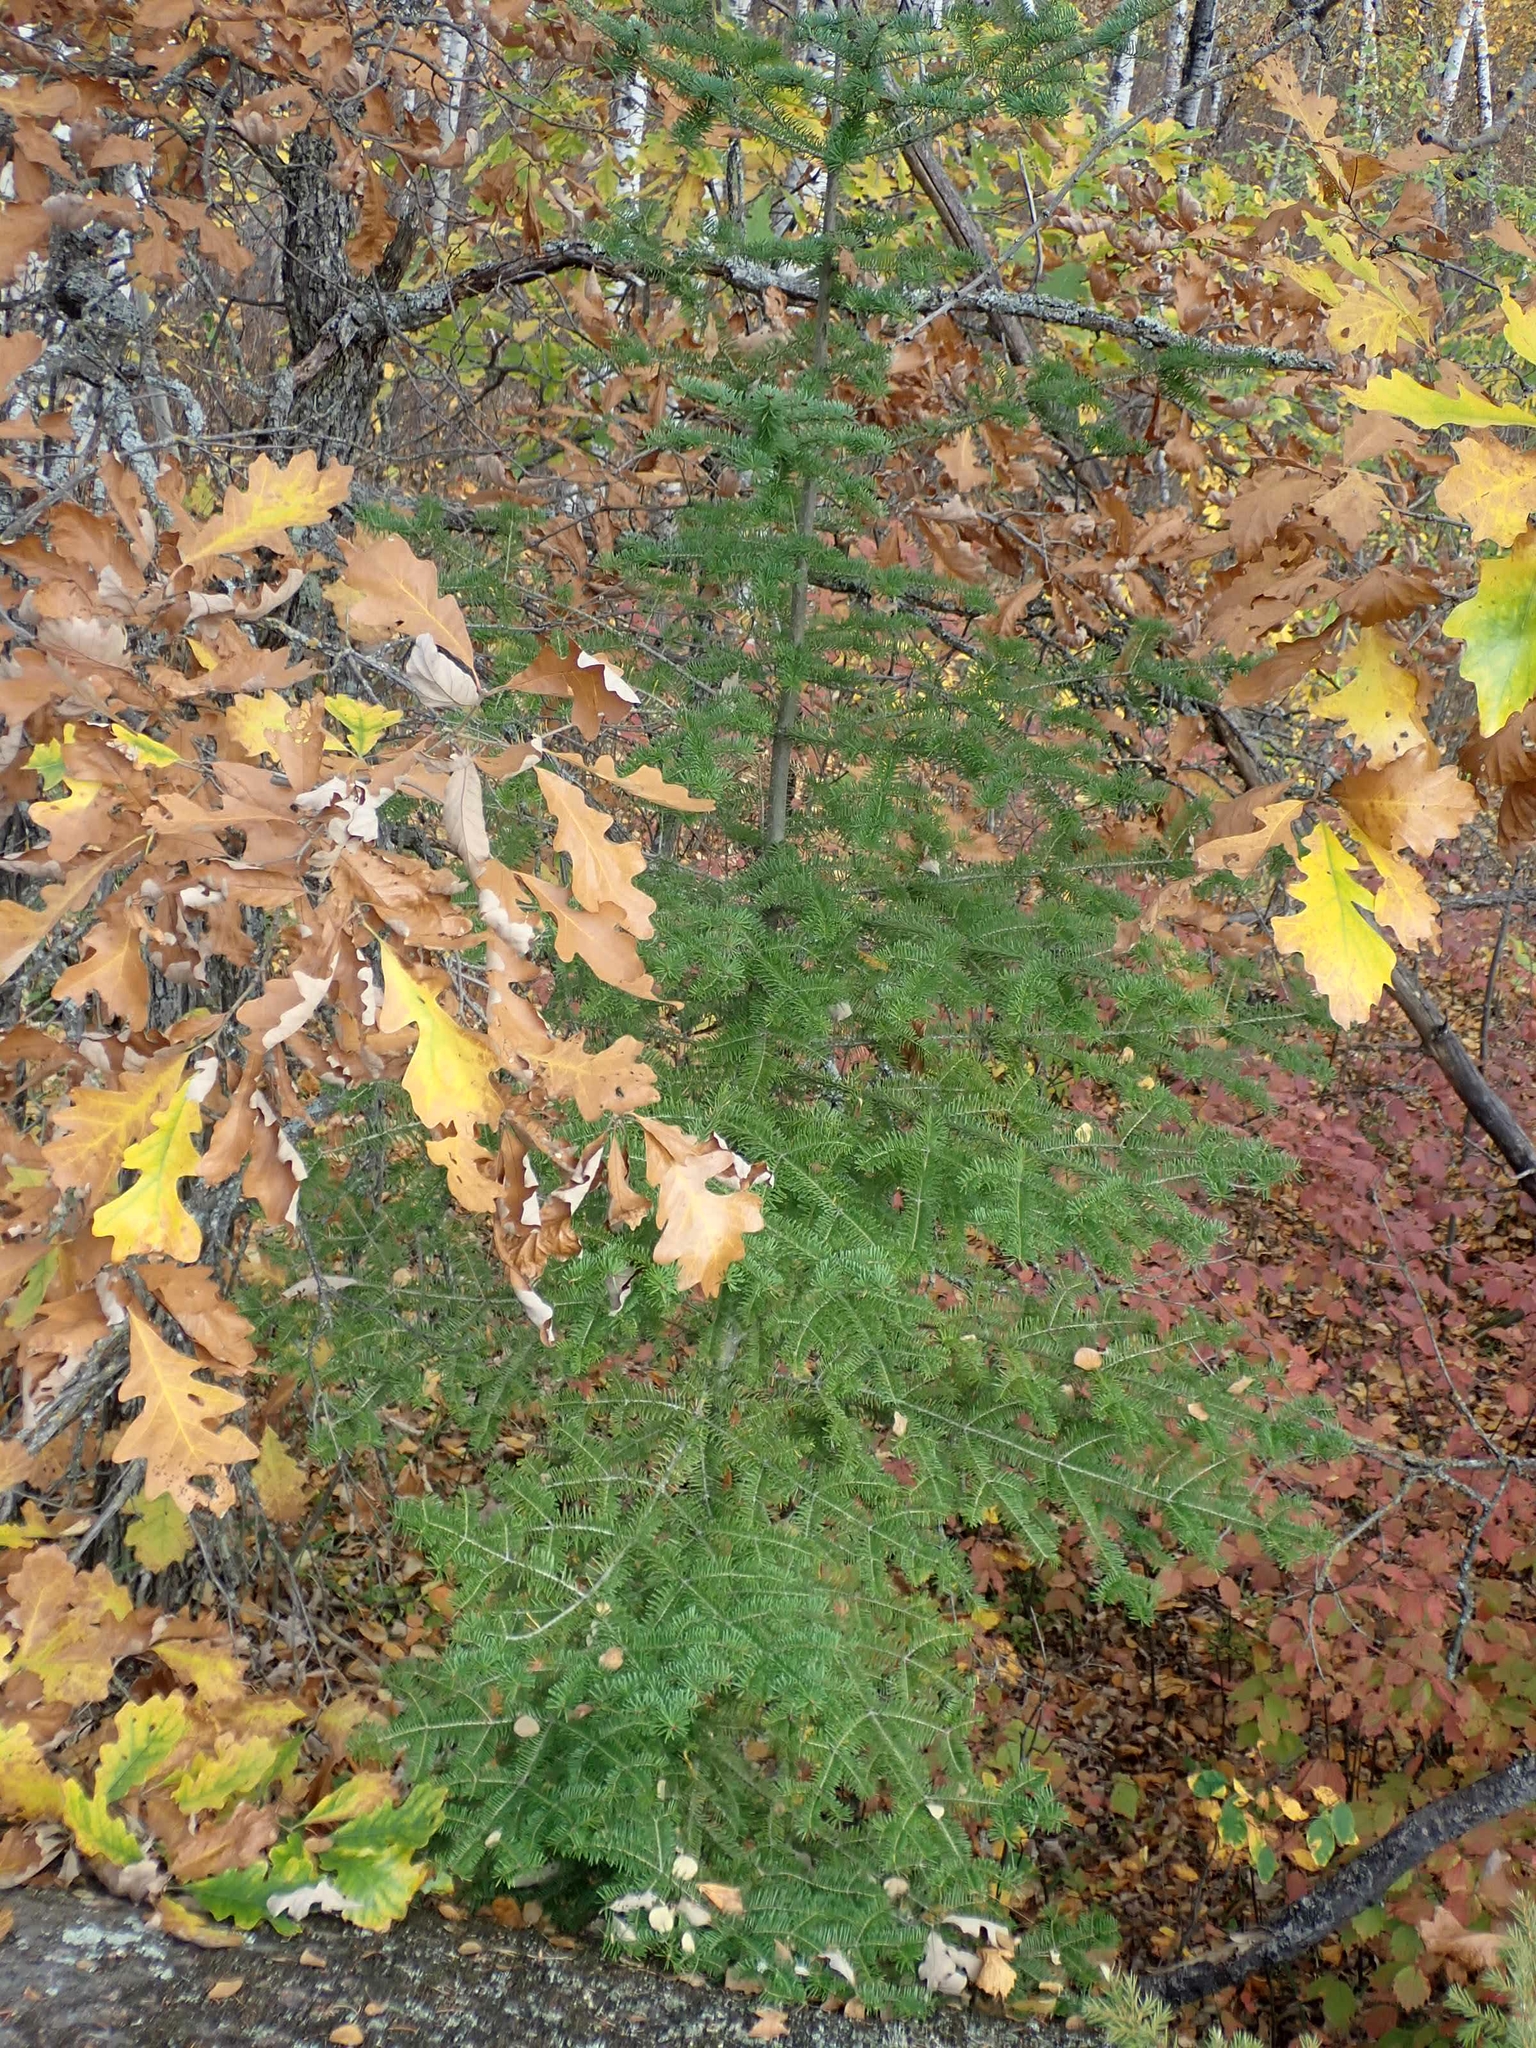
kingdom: Plantae
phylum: Tracheophyta
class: Pinopsida
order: Pinales
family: Pinaceae
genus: Abies
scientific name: Abies balsamea
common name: Balsam fir
